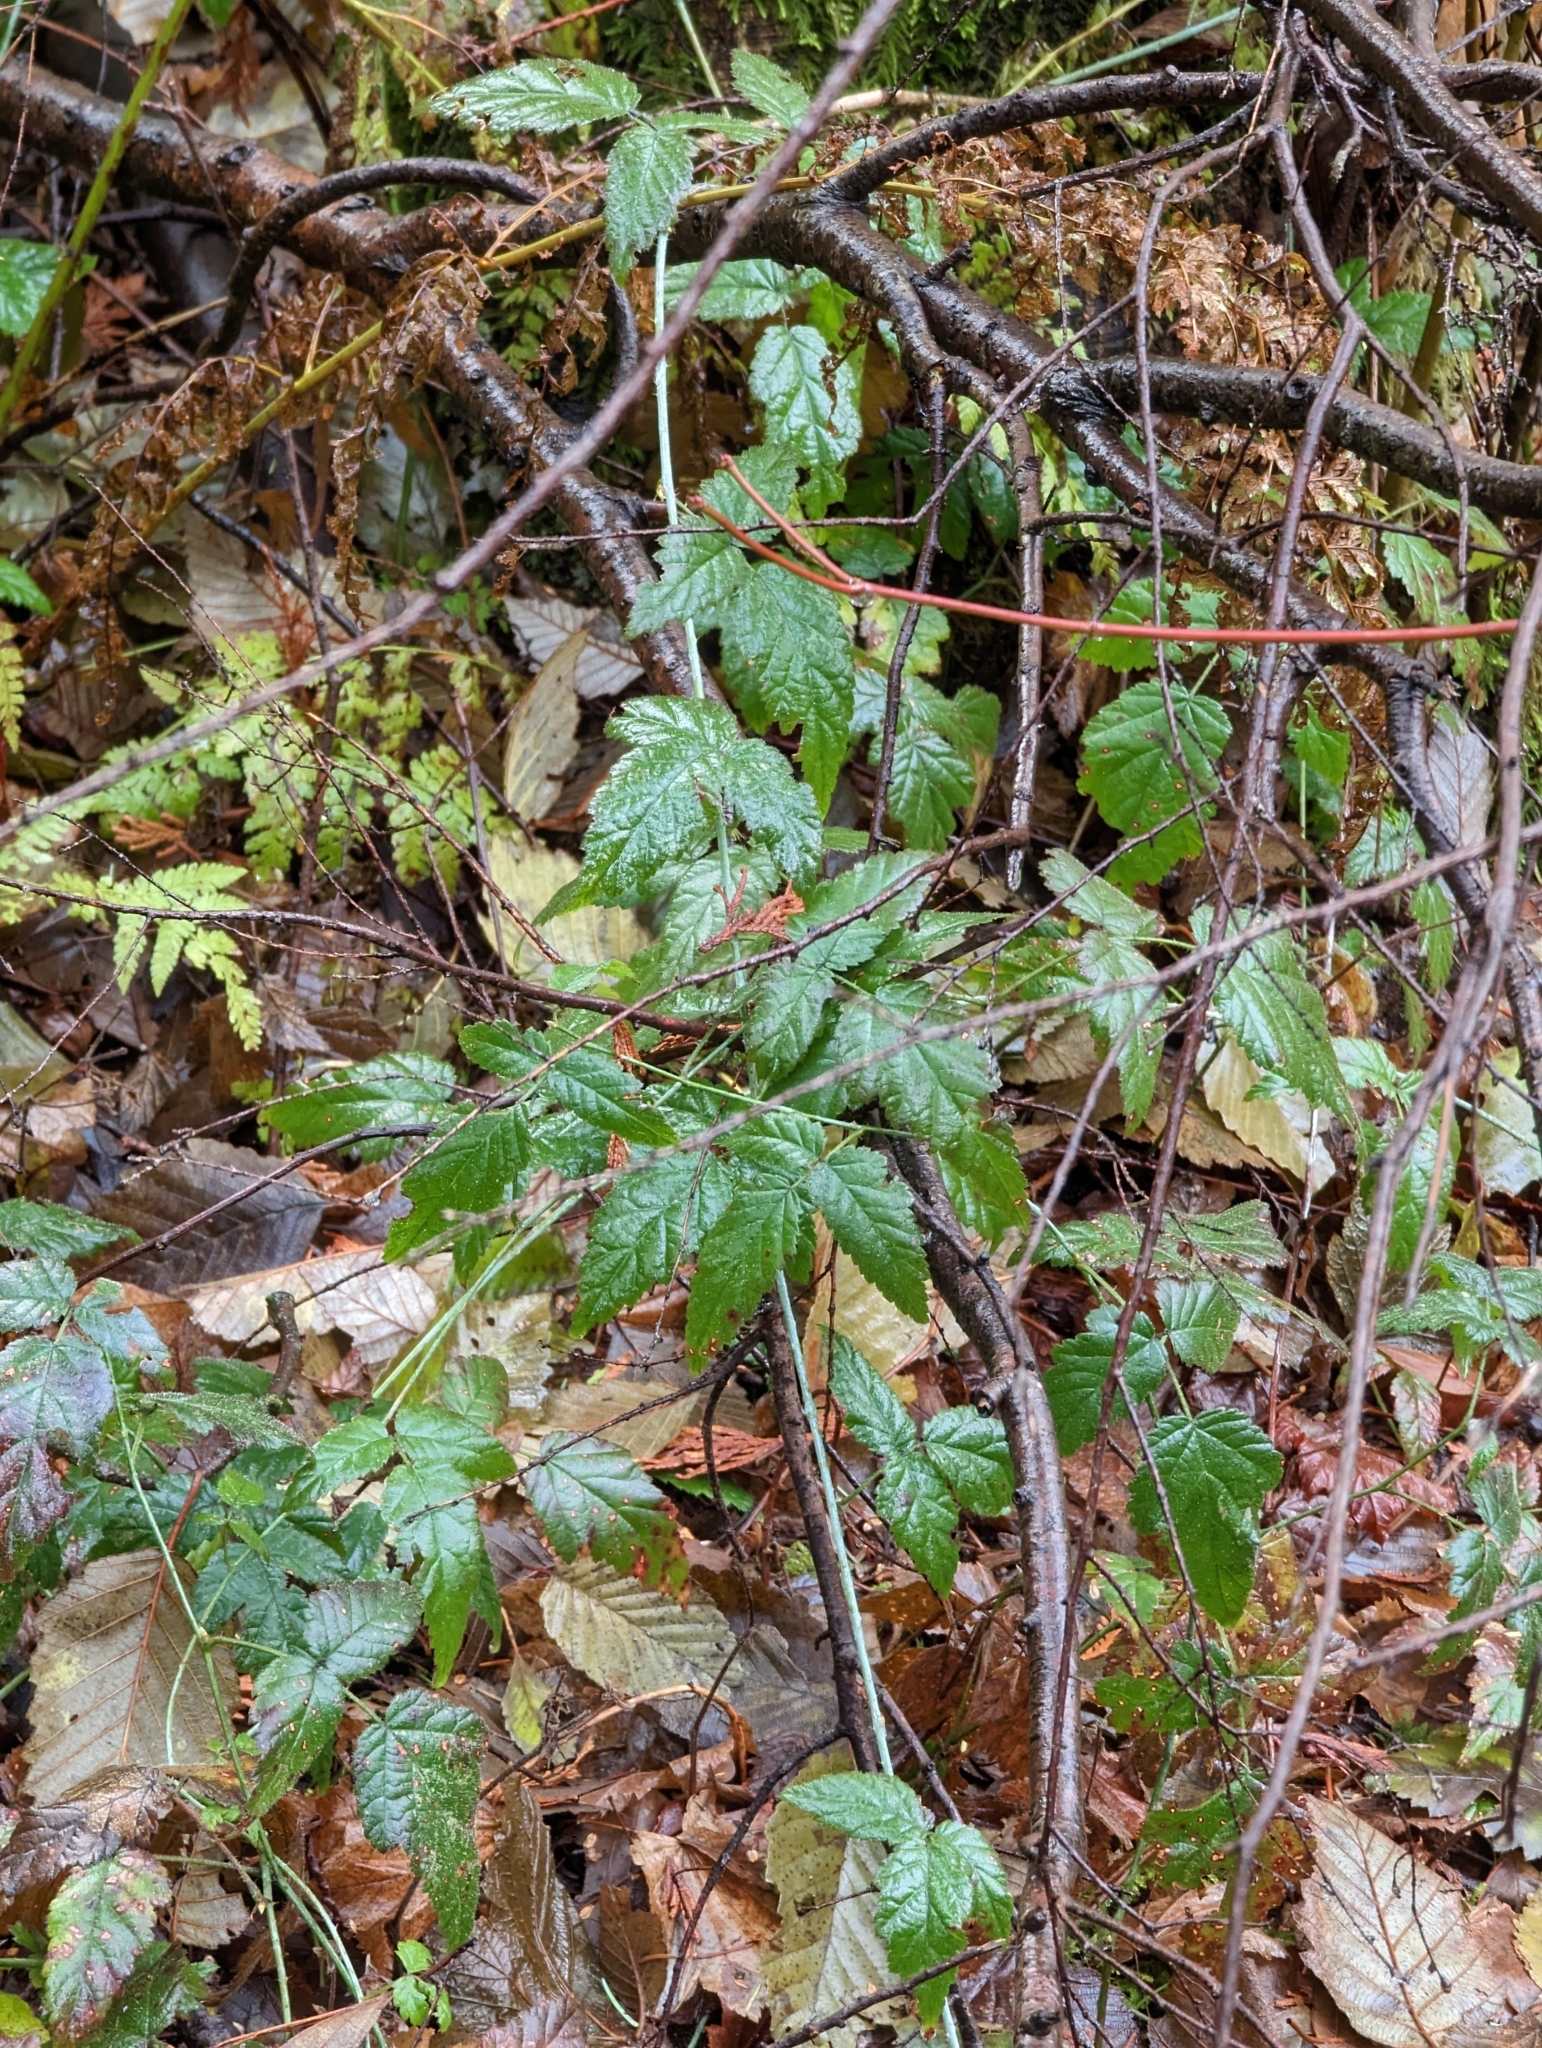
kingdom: Plantae
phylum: Tracheophyta
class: Magnoliopsida
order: Rosales
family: Rosaceae
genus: Rubus
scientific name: Rubus ursinus
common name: Pacific blackberry
